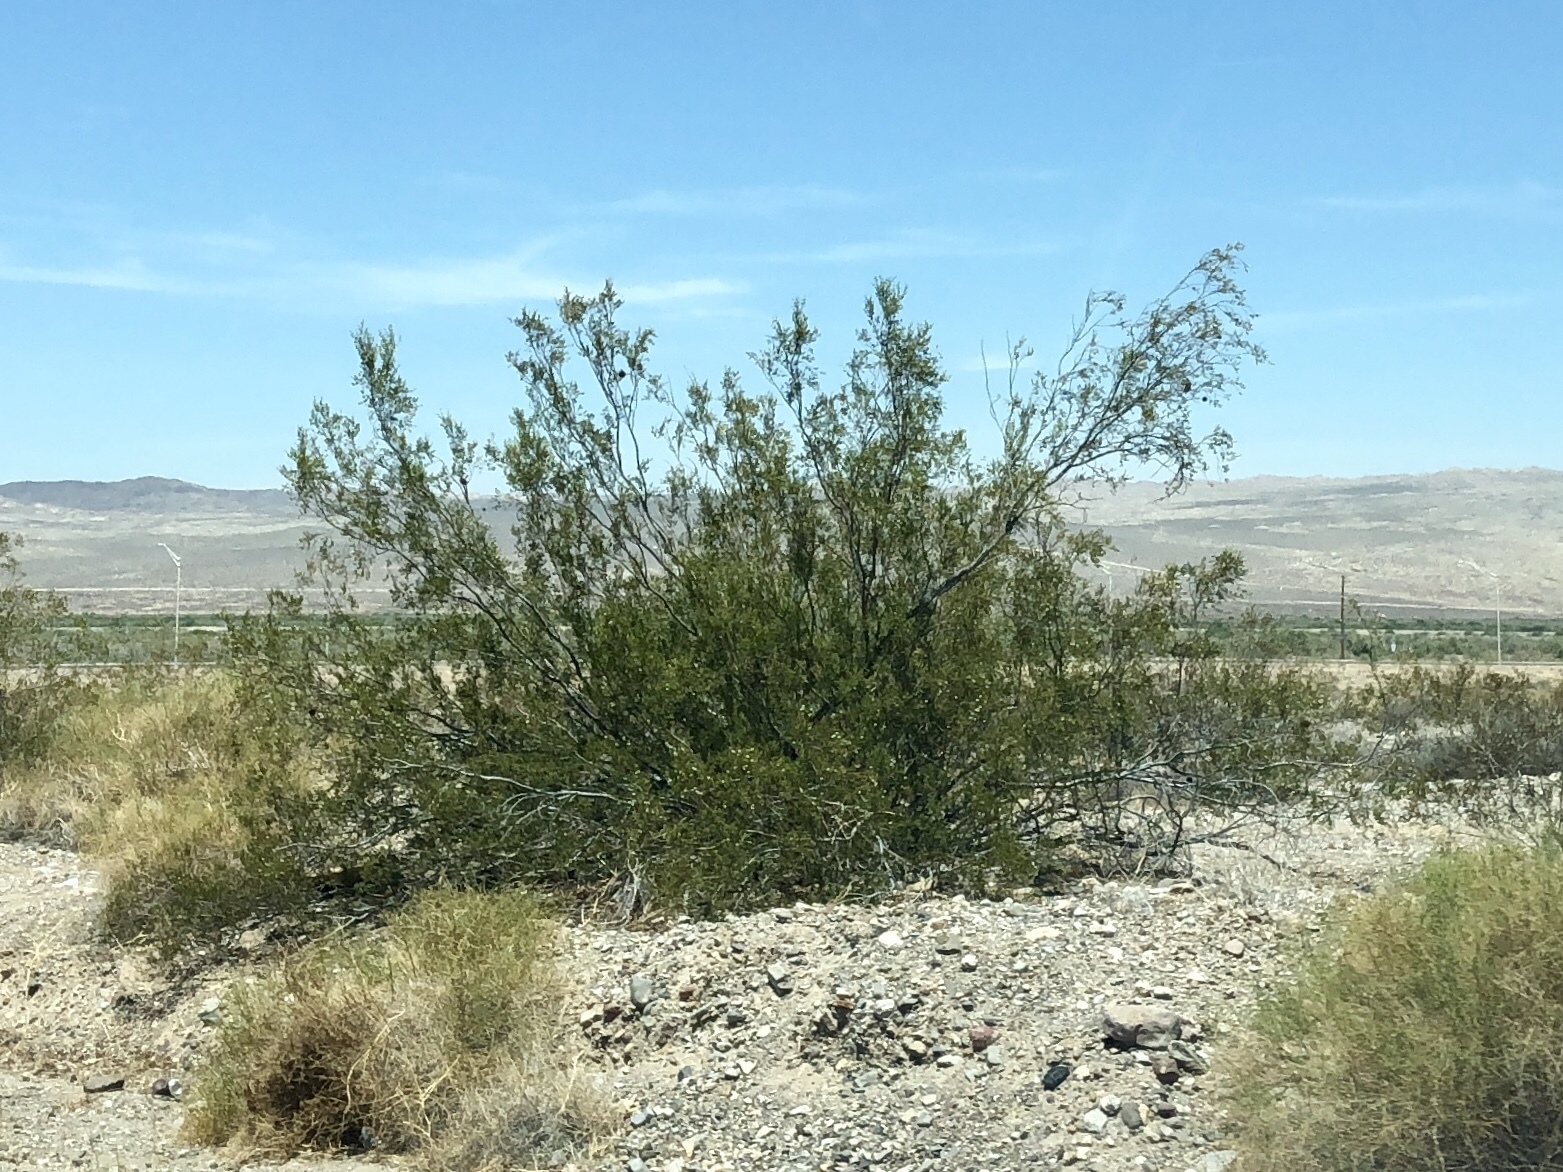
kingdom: Plantae
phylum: Tracheophyta
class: Magnoliopsida
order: Zygophyllales
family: Zygophyllaceae
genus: Larrea
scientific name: Larrea tridentata
